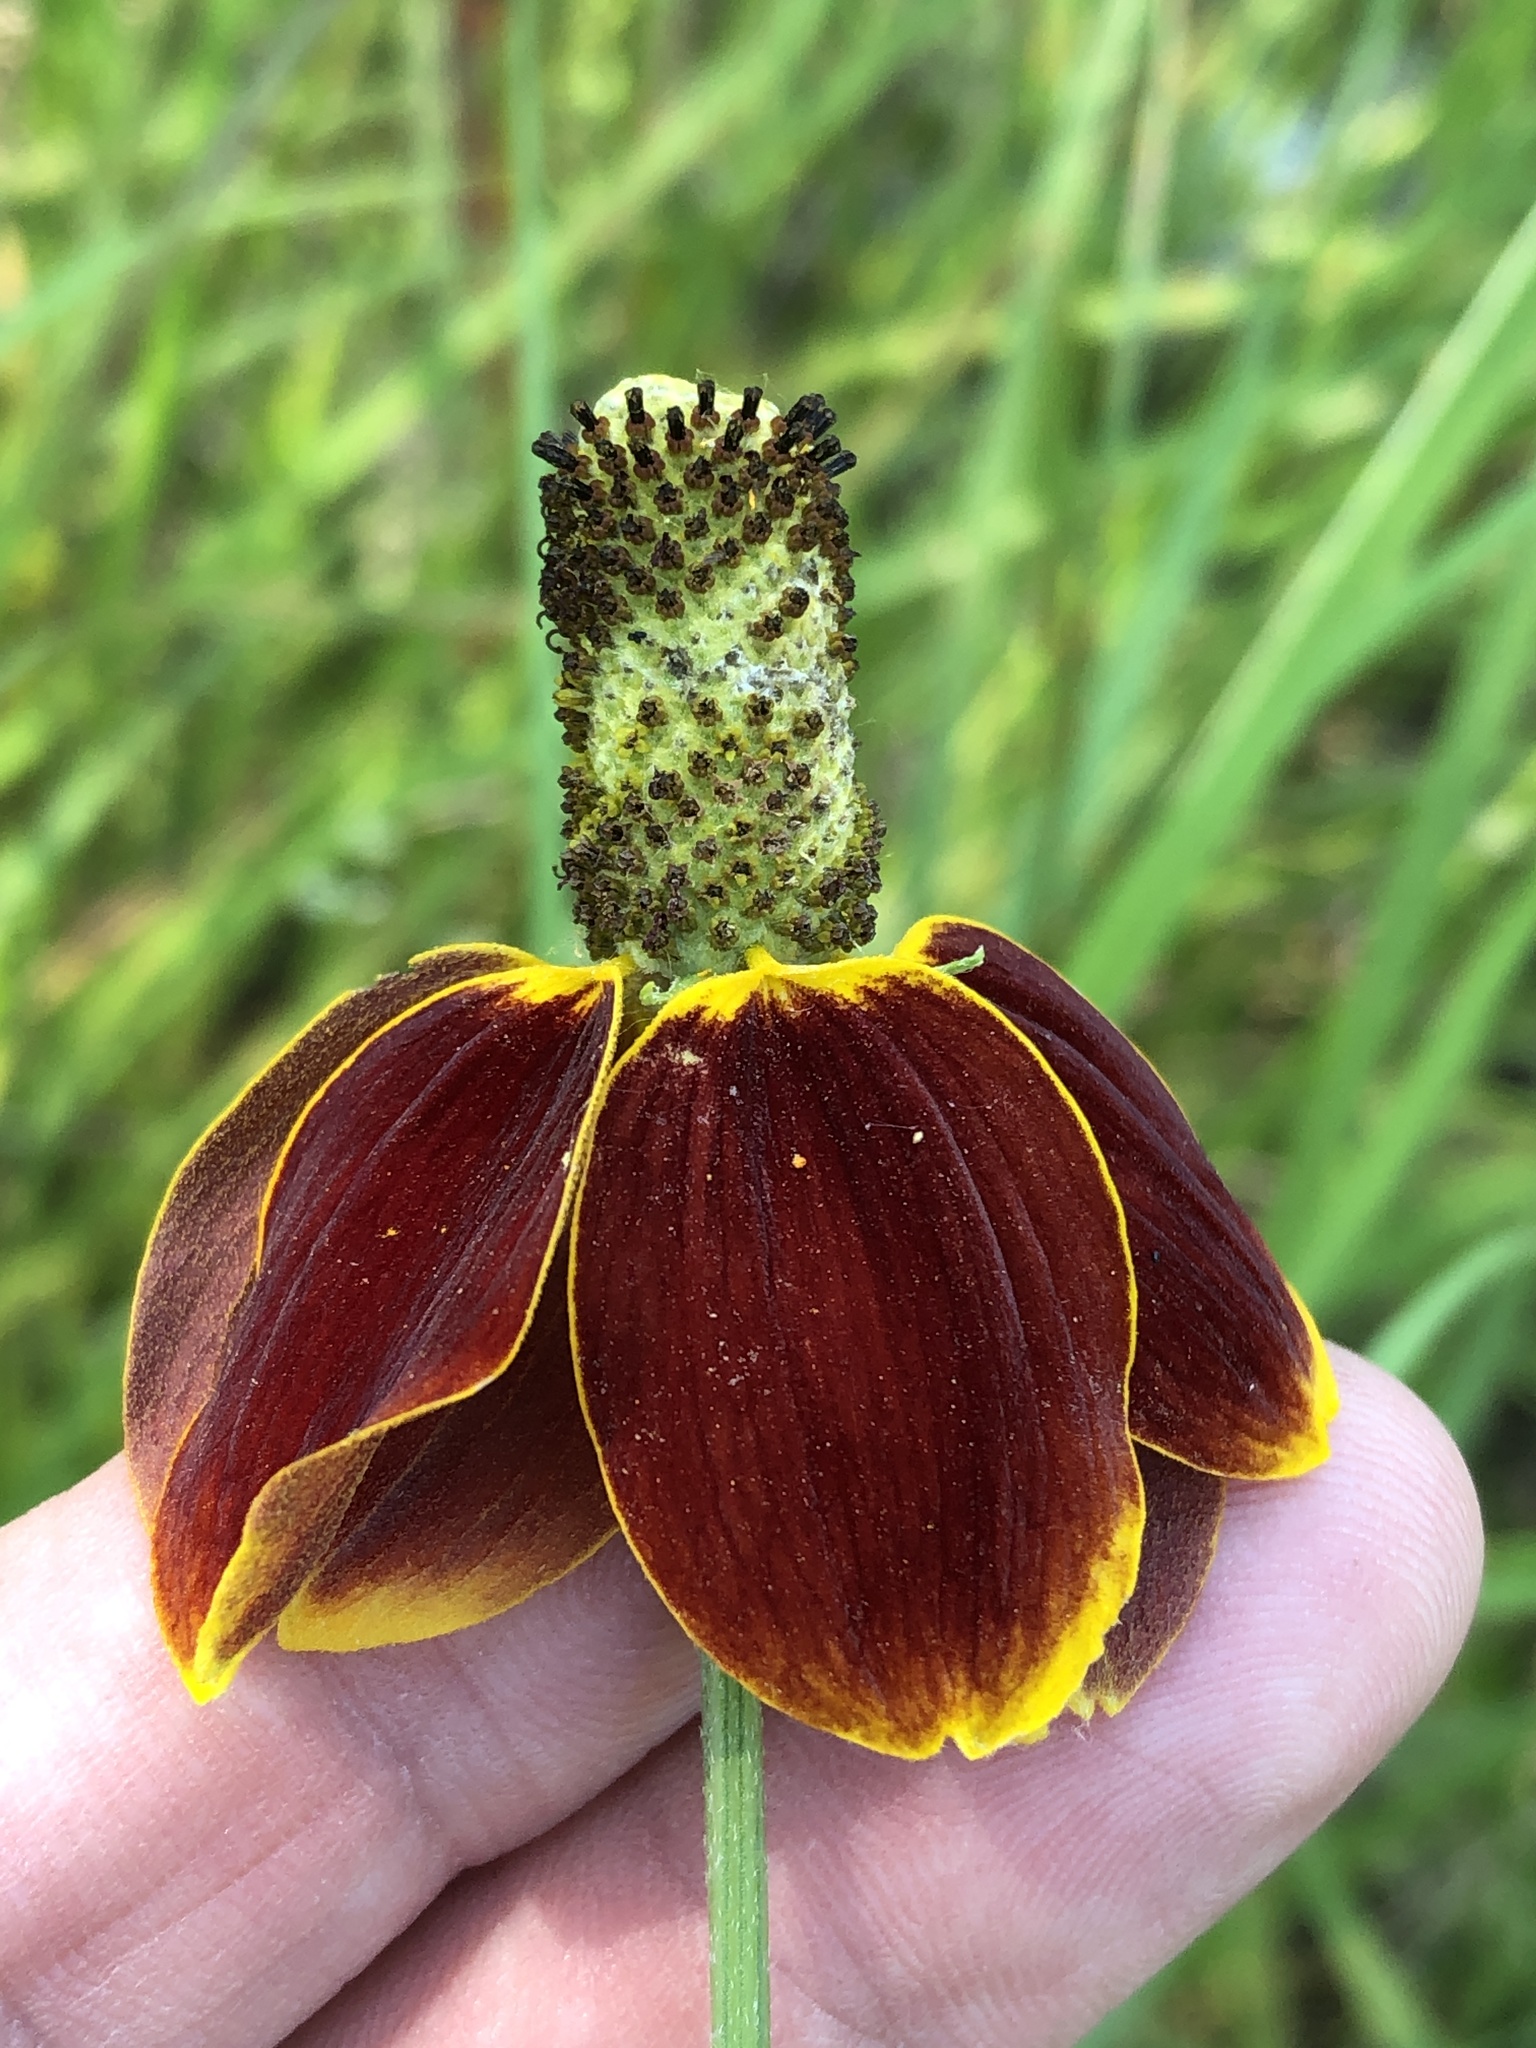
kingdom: Plantae
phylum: Tracheophyta
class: Magnoliopsida
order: Asterales
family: Asteraceae
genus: Ratibida
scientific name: Ratibida columnifera
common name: Prairie coneflower
